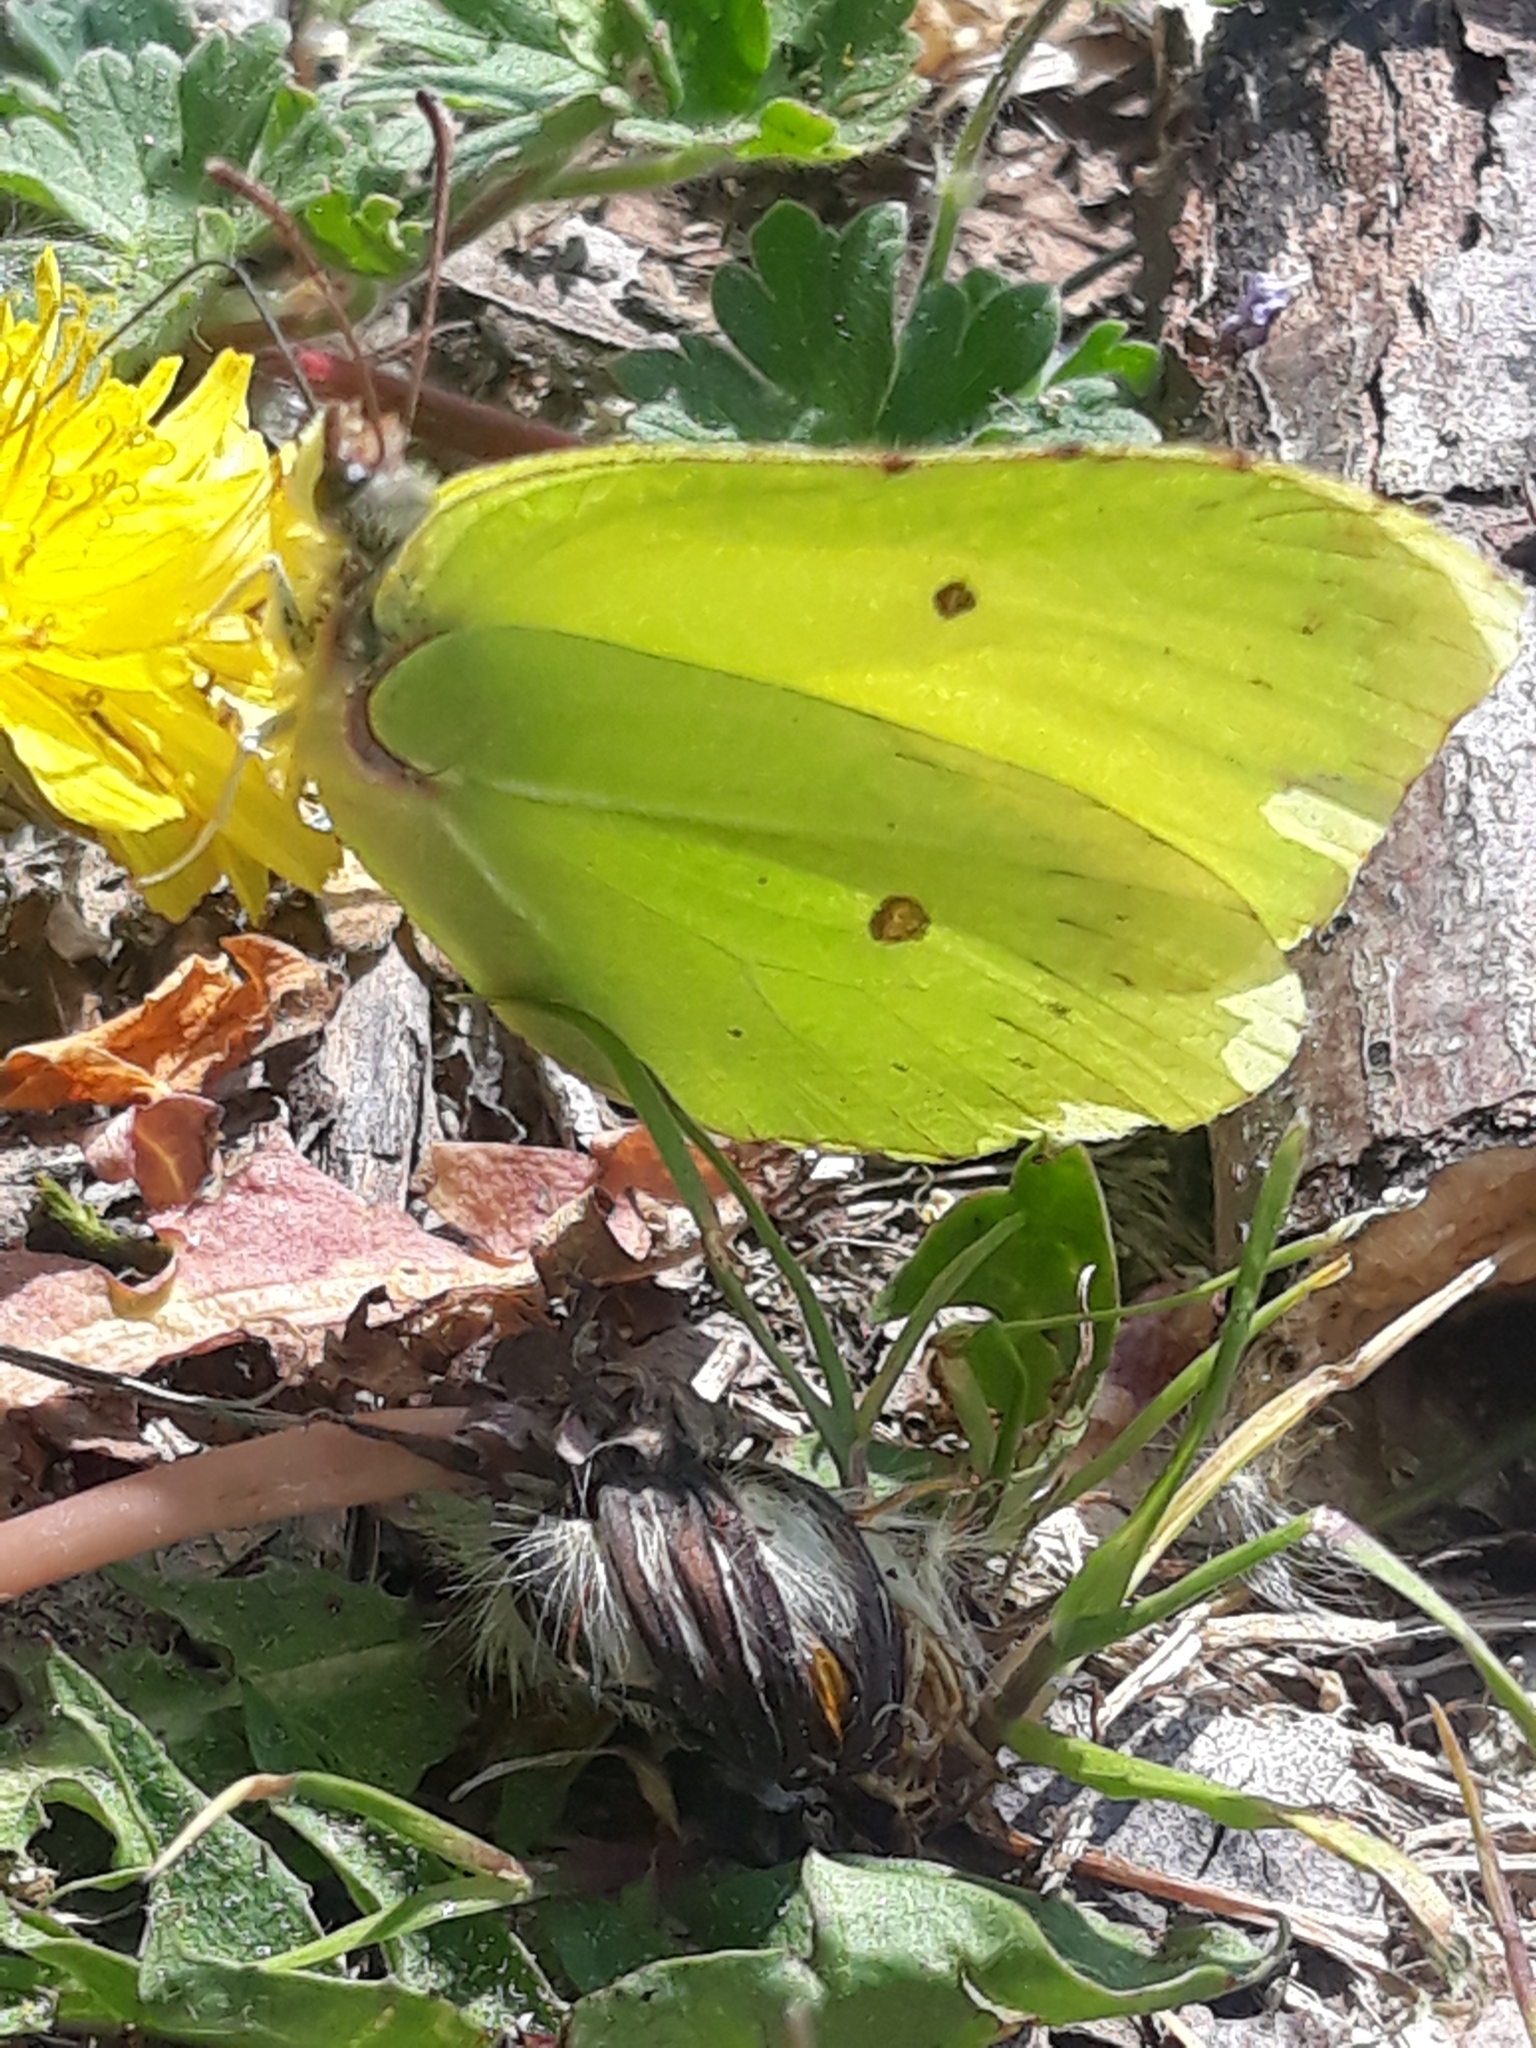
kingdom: Animalia
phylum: Arthropoda
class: Insecta
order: Lepidoptera
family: Pieridae
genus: Gonepteryx
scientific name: Gonepteryx rhamni
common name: Brimstone
